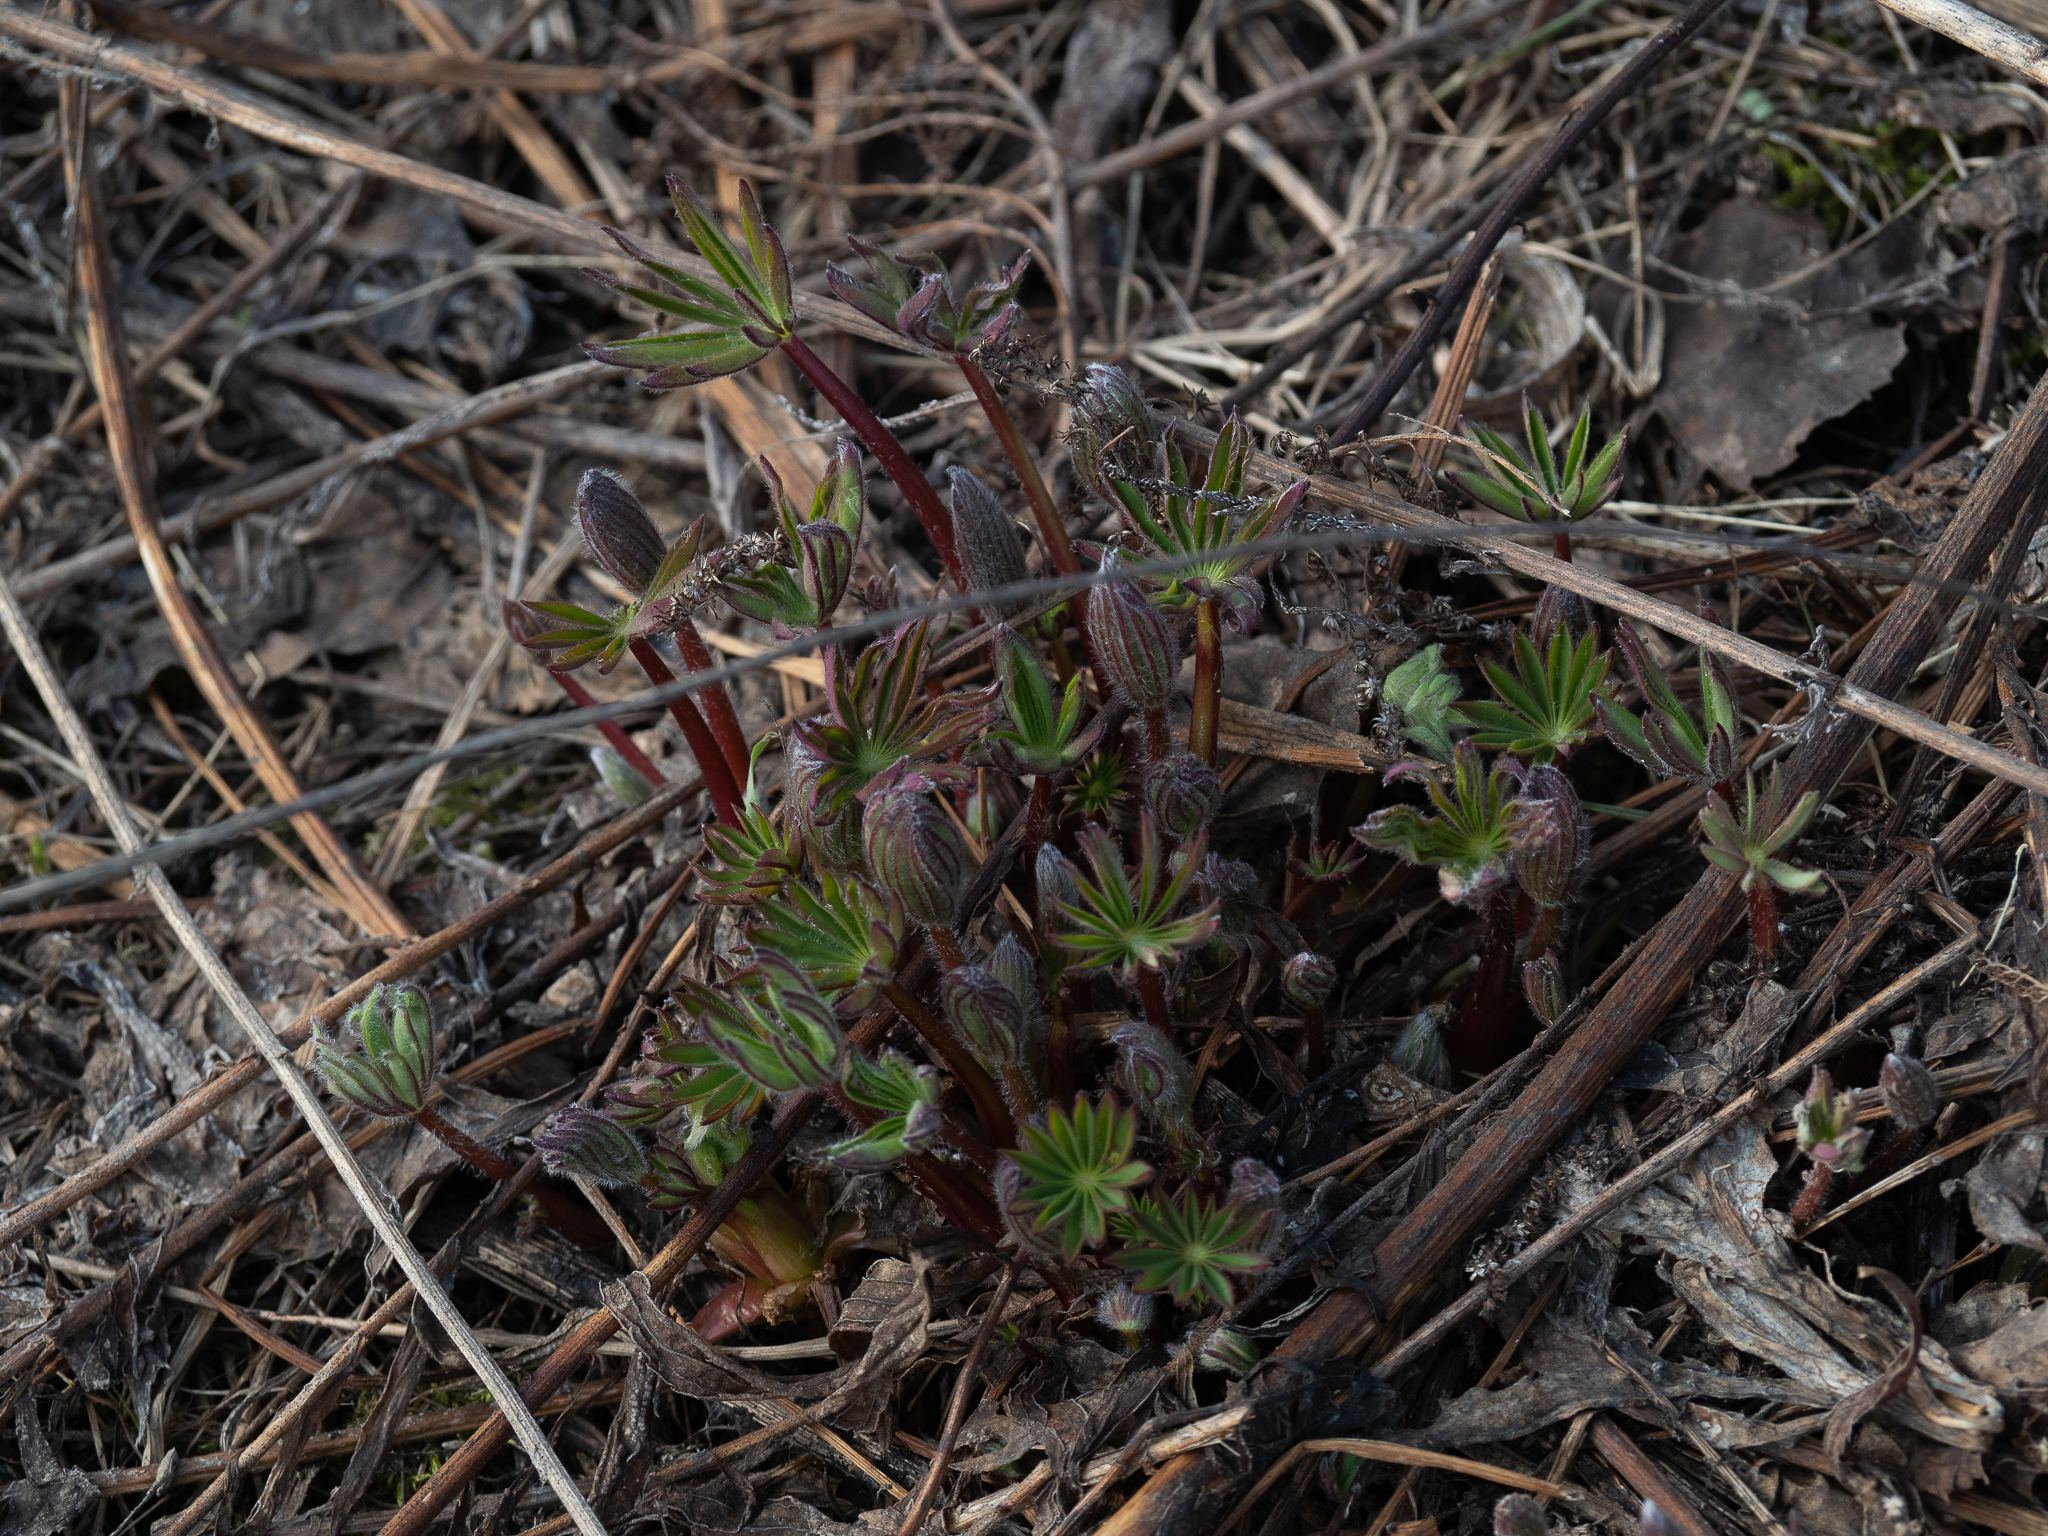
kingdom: Plantae
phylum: Tracheophyta
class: Magnoliopsida
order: Fabales
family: Fabaceae
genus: Lupinus
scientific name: Lupinus polyphyllus
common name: Garden lupin
